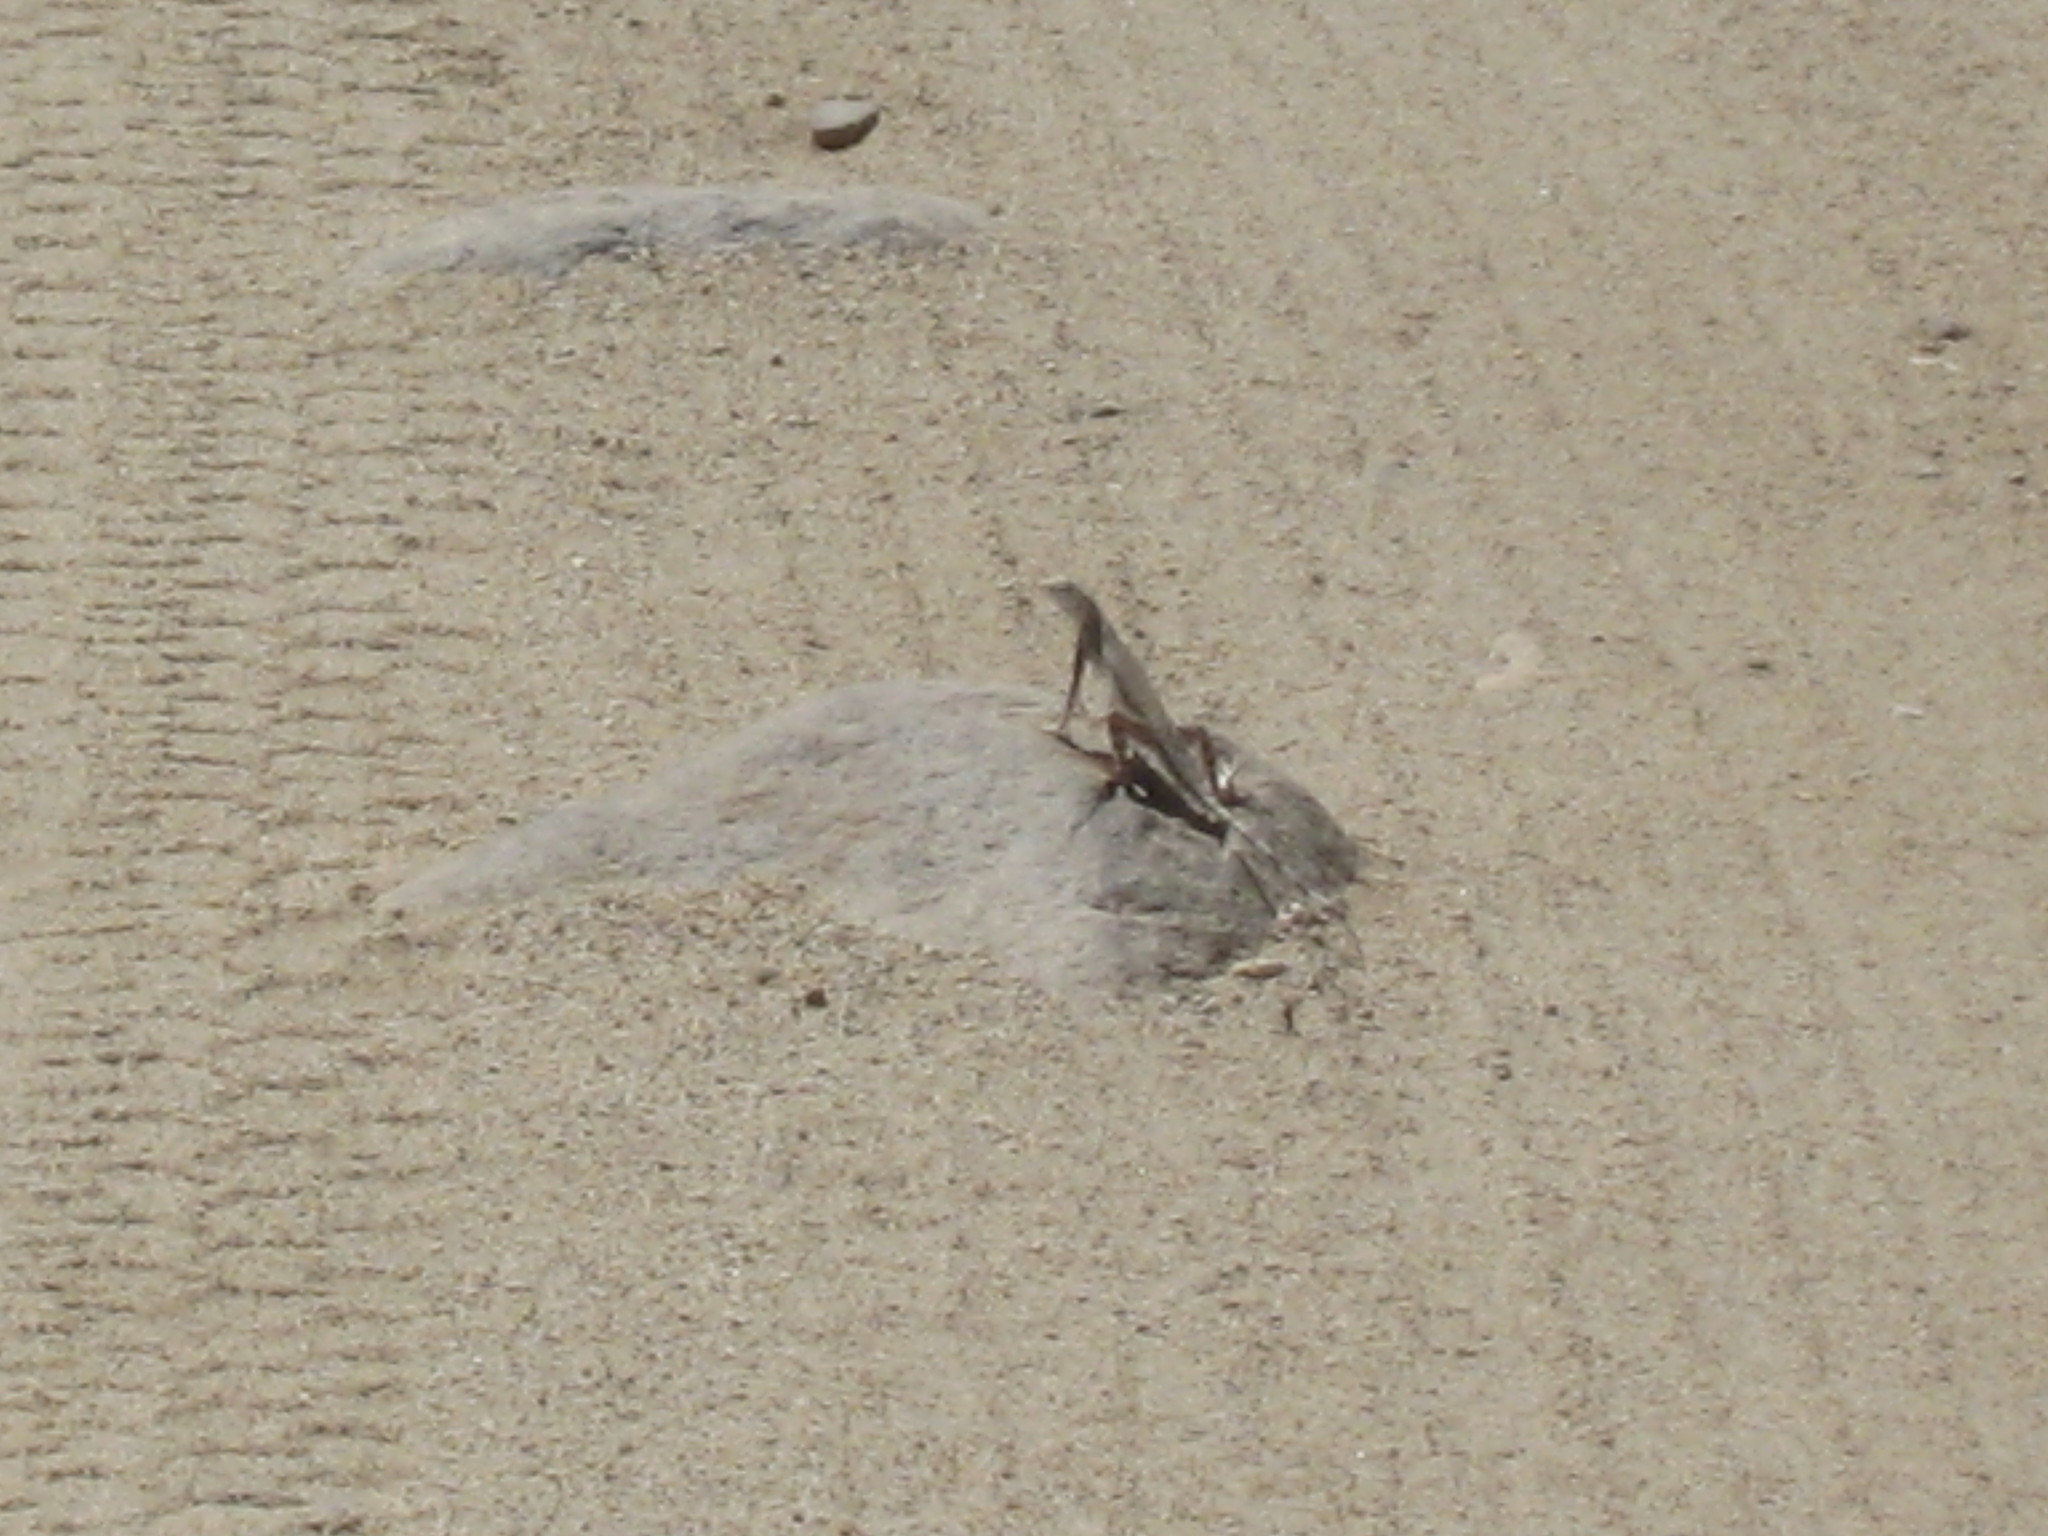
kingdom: Animalia
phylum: Chordata
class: Squamata
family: Phrynosomatidae
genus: Callisaurus
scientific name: Callisaurus draconoides
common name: Zebra-tailed lizard
